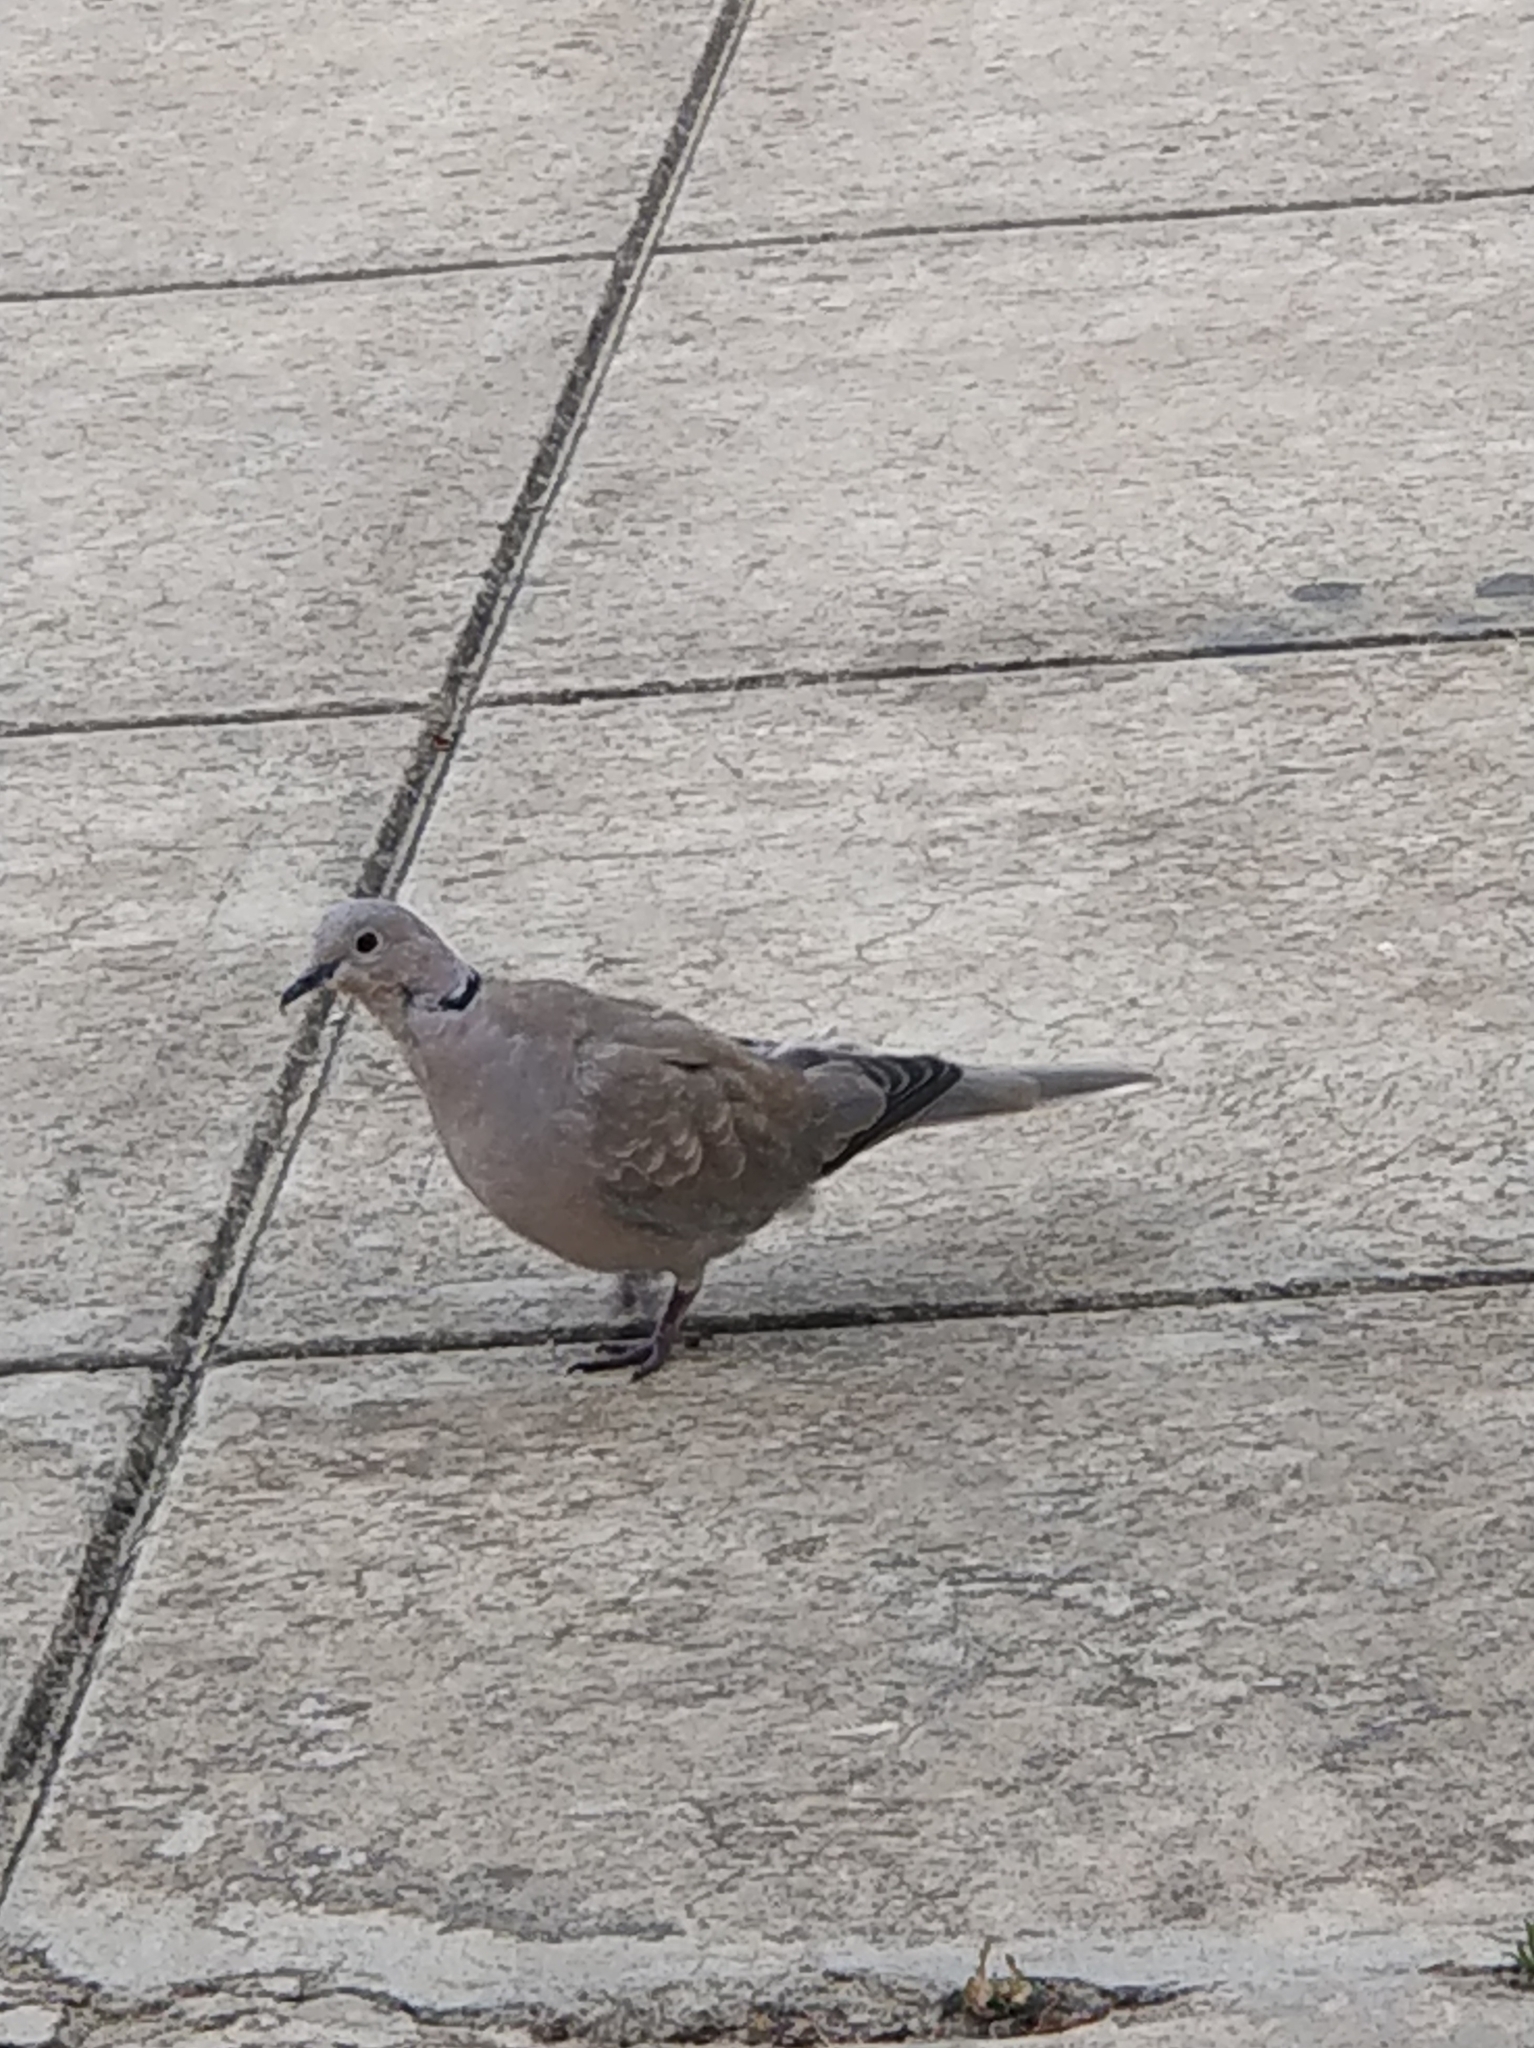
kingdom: Animalia
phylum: Chordata
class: Aves
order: Columbiformes
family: Columbidae
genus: Streptopelia
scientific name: Streptopelia decaocto
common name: Eurasian collared dove
